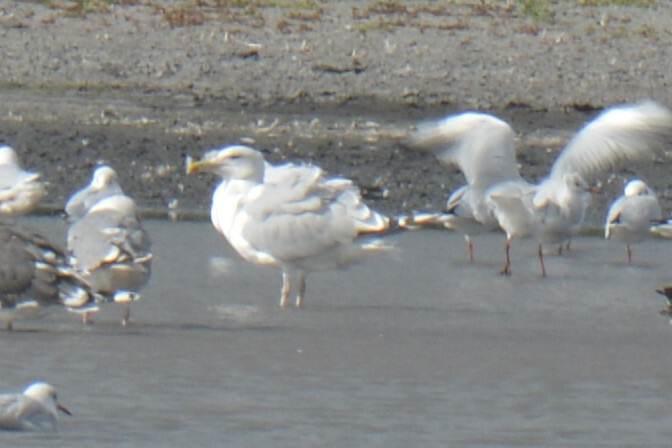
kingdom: Animalia
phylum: Chordata
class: Aves
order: Charadriiformes
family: Laridae
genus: Larus
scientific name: Larus cachinnans
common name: Caspian gull
